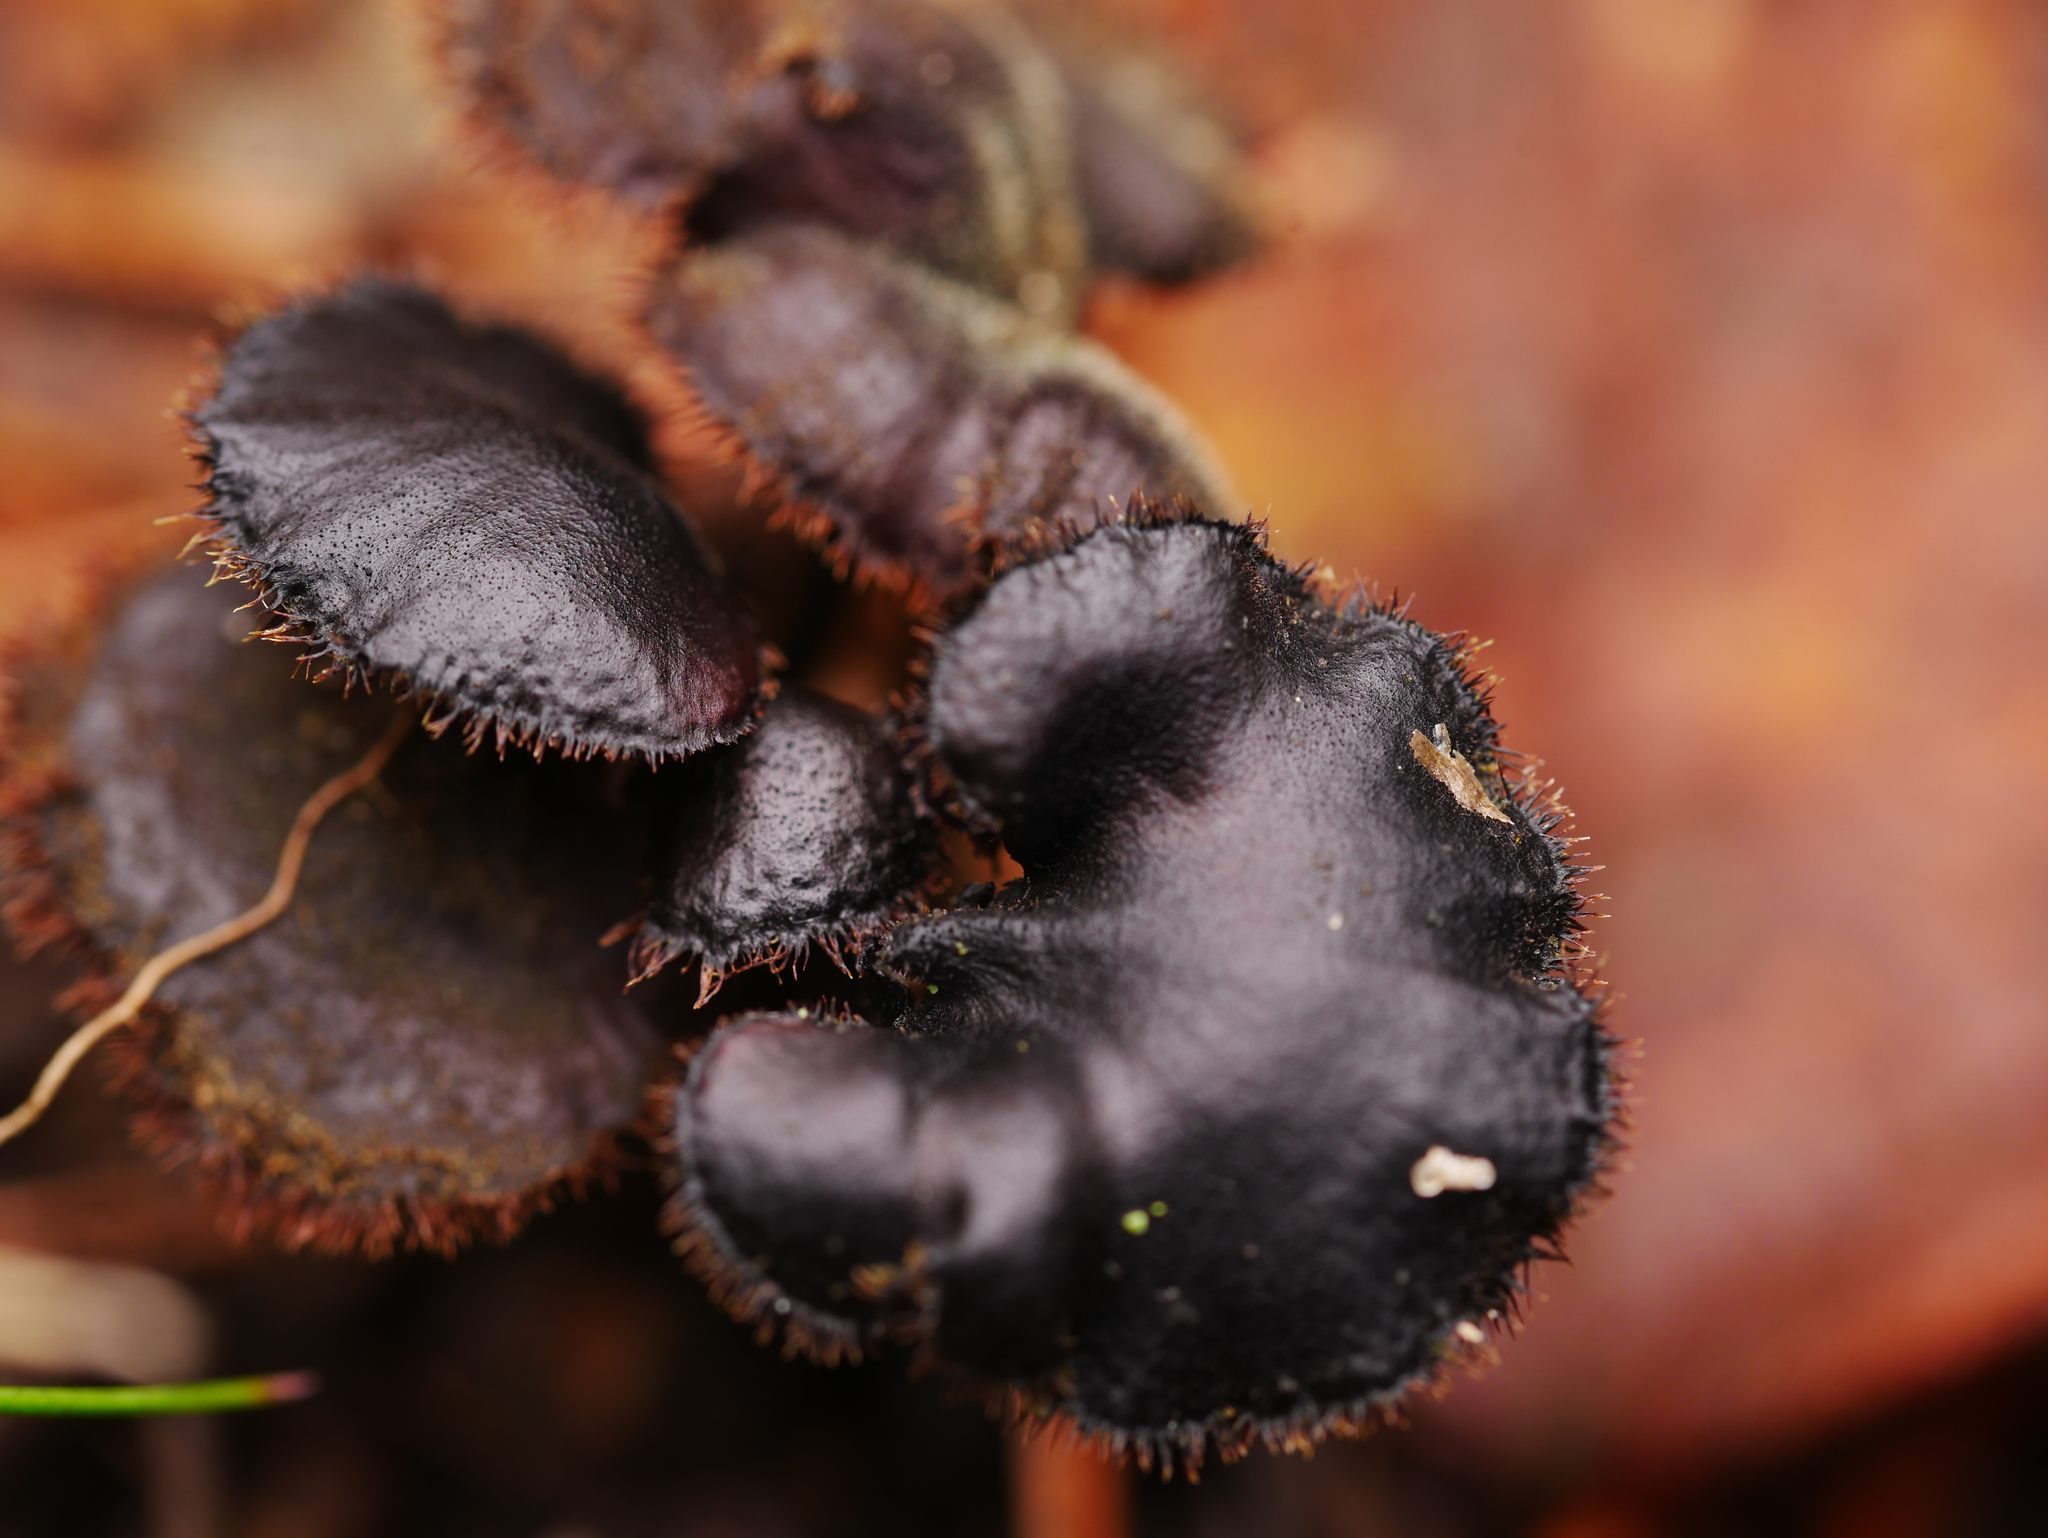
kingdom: Fungi
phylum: Basidiomycota
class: Agaricomycetes
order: Russulales
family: Auriscalpiaceae
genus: Auriscalpium
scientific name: Auriscalpium vulgare
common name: Earpick fungus
